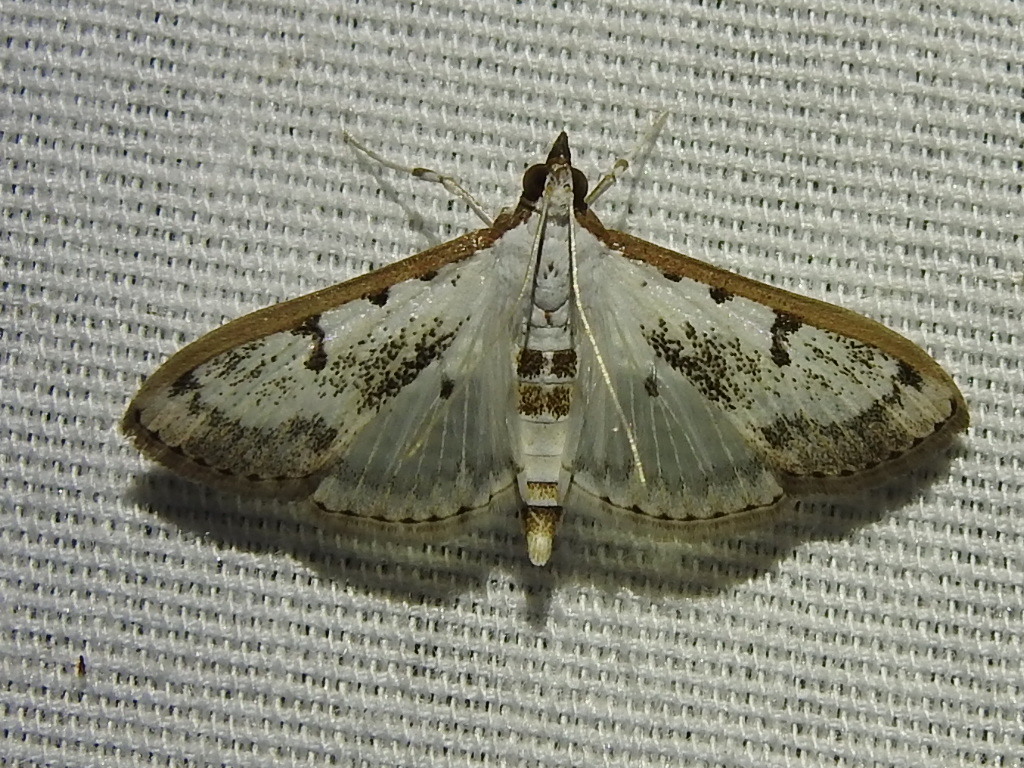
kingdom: Animalia
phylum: Arthropoda
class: Insecta
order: Lepidoptera
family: Crambidae
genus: Palpita
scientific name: Palpita gracilalis
